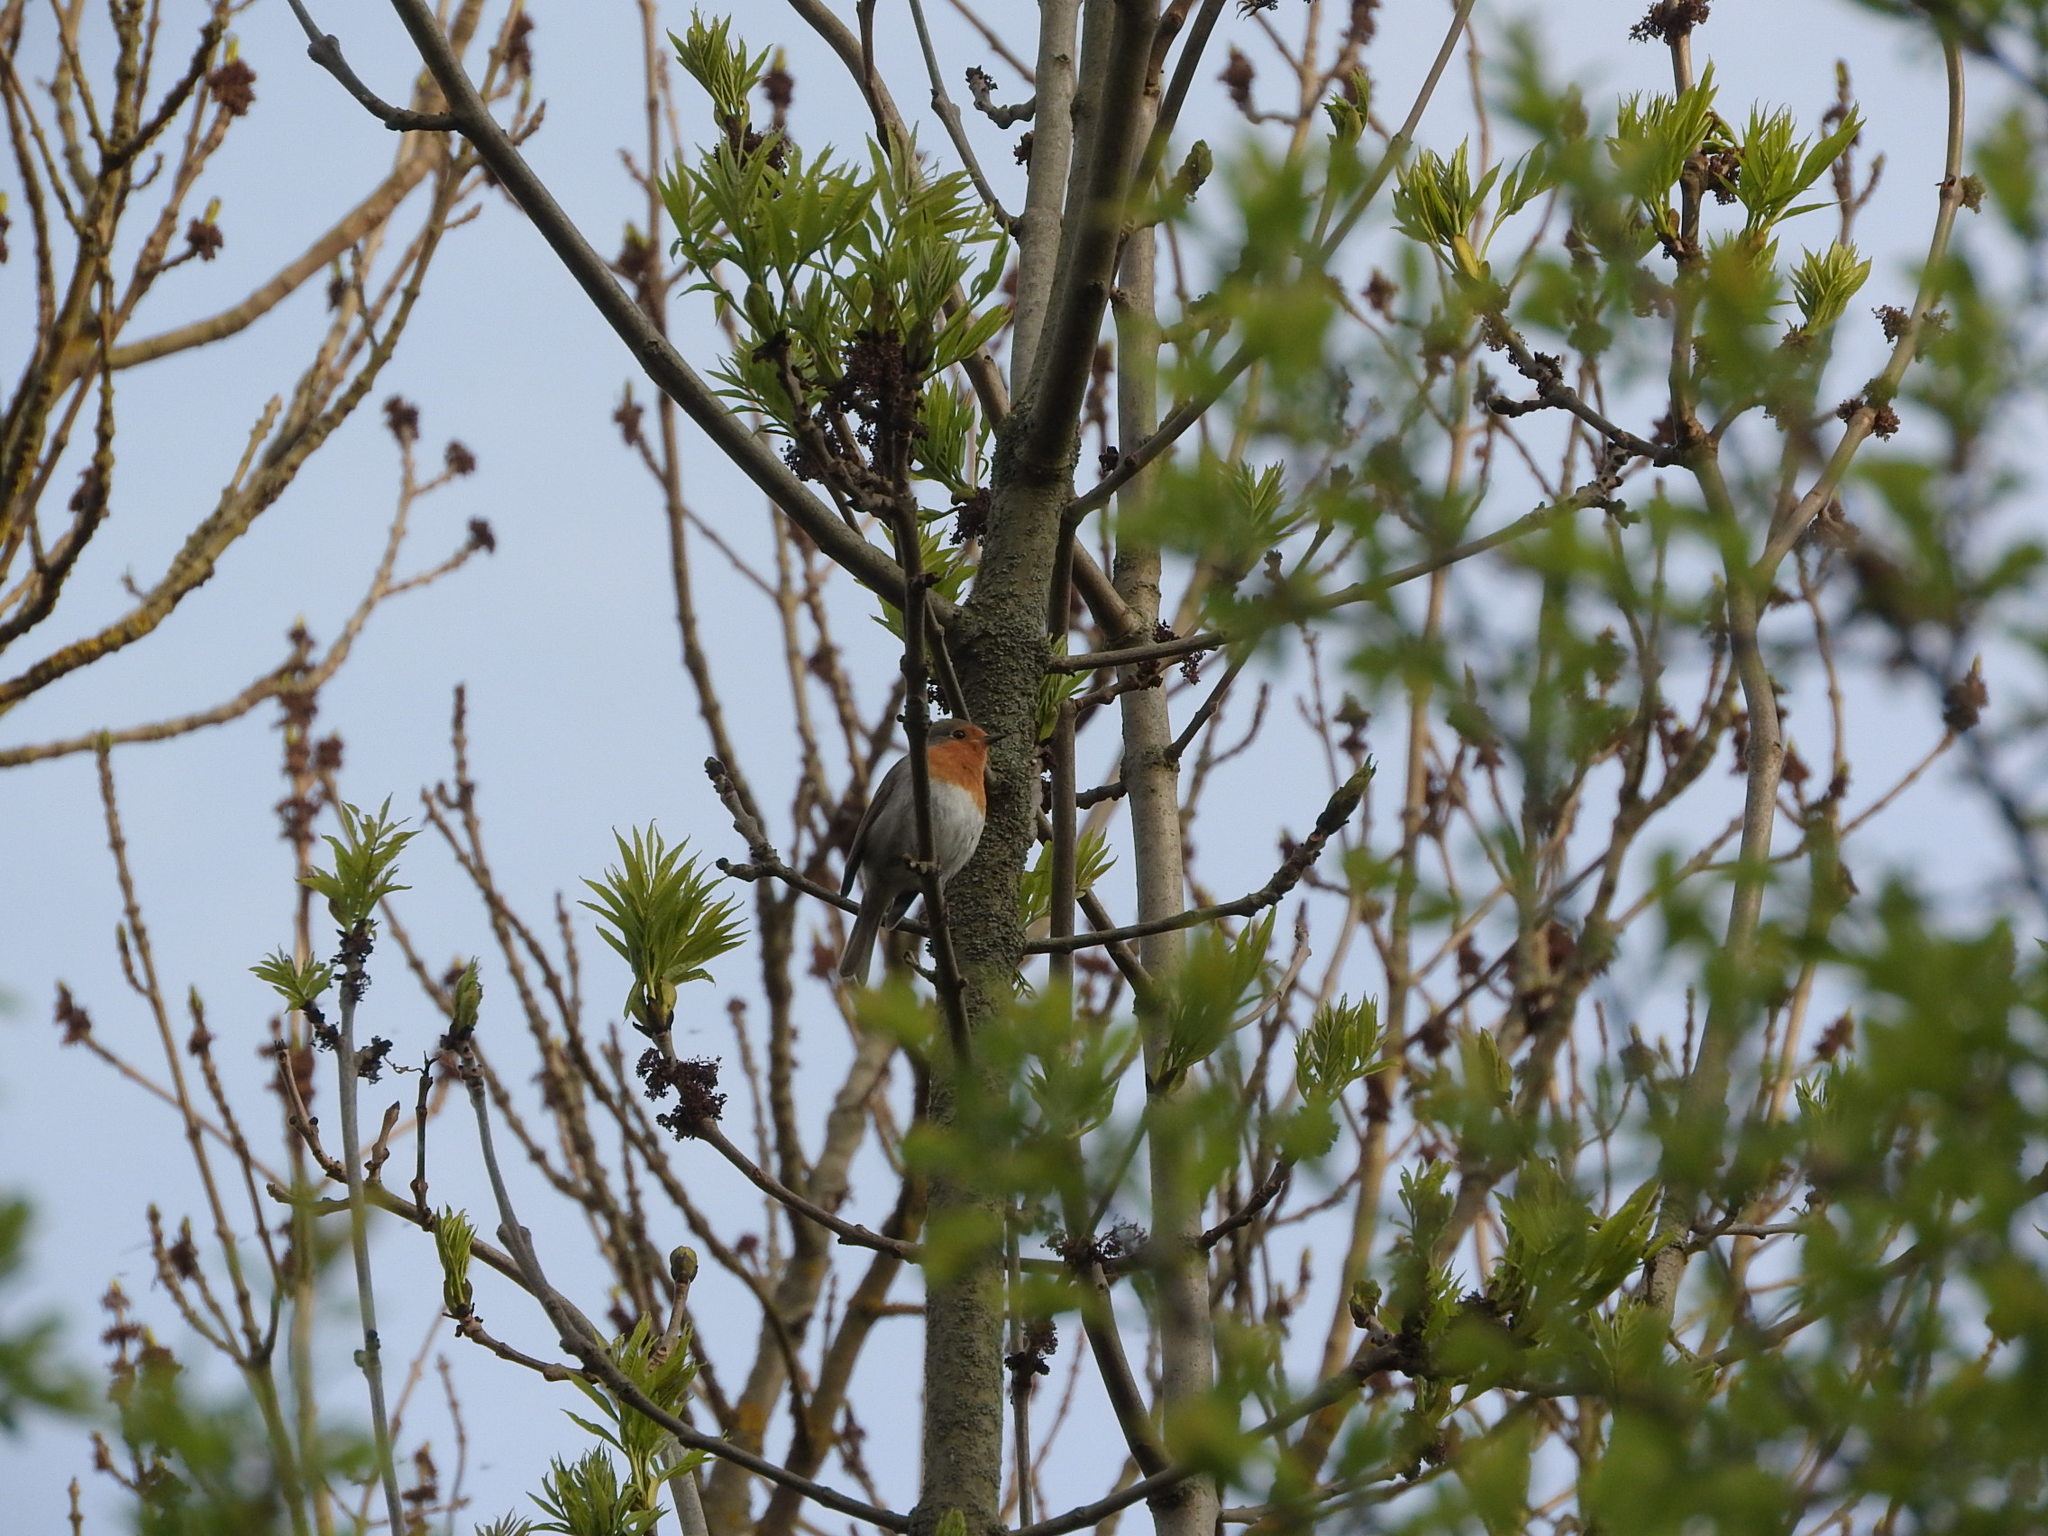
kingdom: Animalia
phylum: Chordata
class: Aves
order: Passeriformes
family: Muscicapidae
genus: Erithacus
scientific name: Erithacus rubecula
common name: European robin
